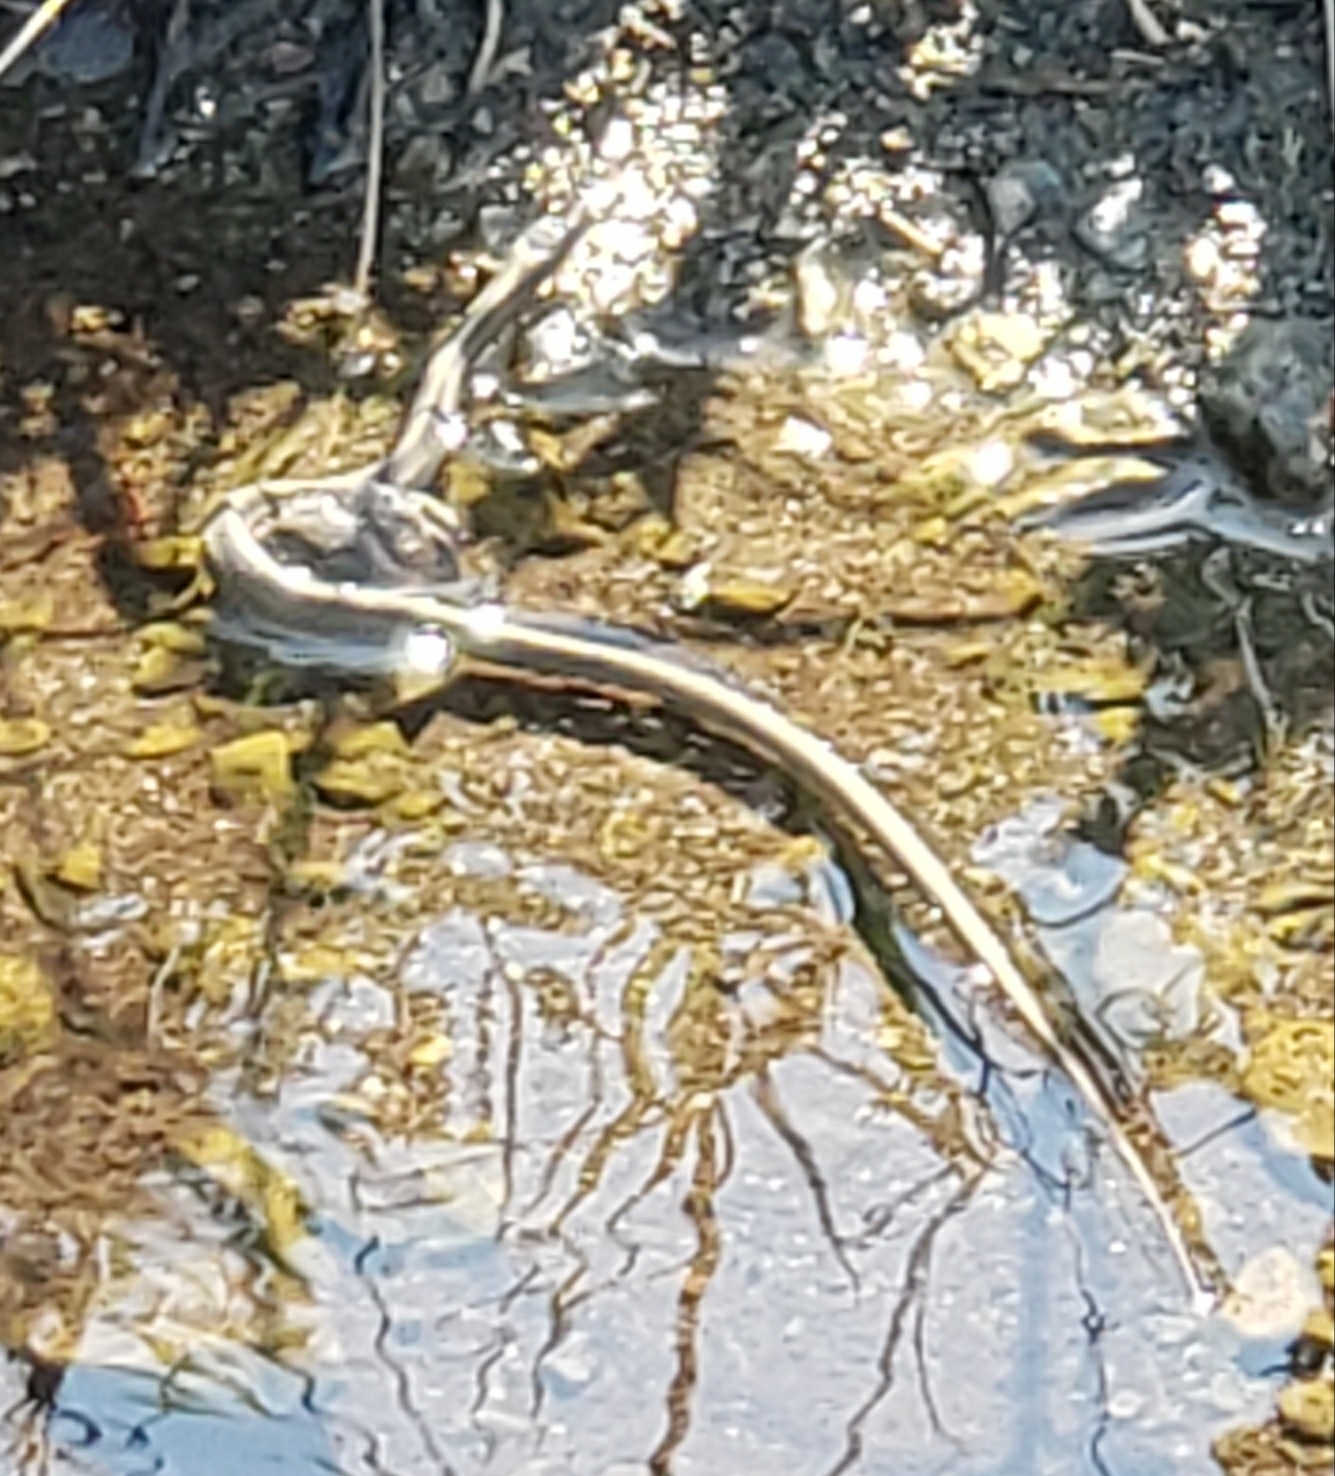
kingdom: Animalia
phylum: Chordata
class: Squamata
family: Colubridae
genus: Thamnophis
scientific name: Thamnophis atratus
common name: Pacific coast aquatic garter snake
